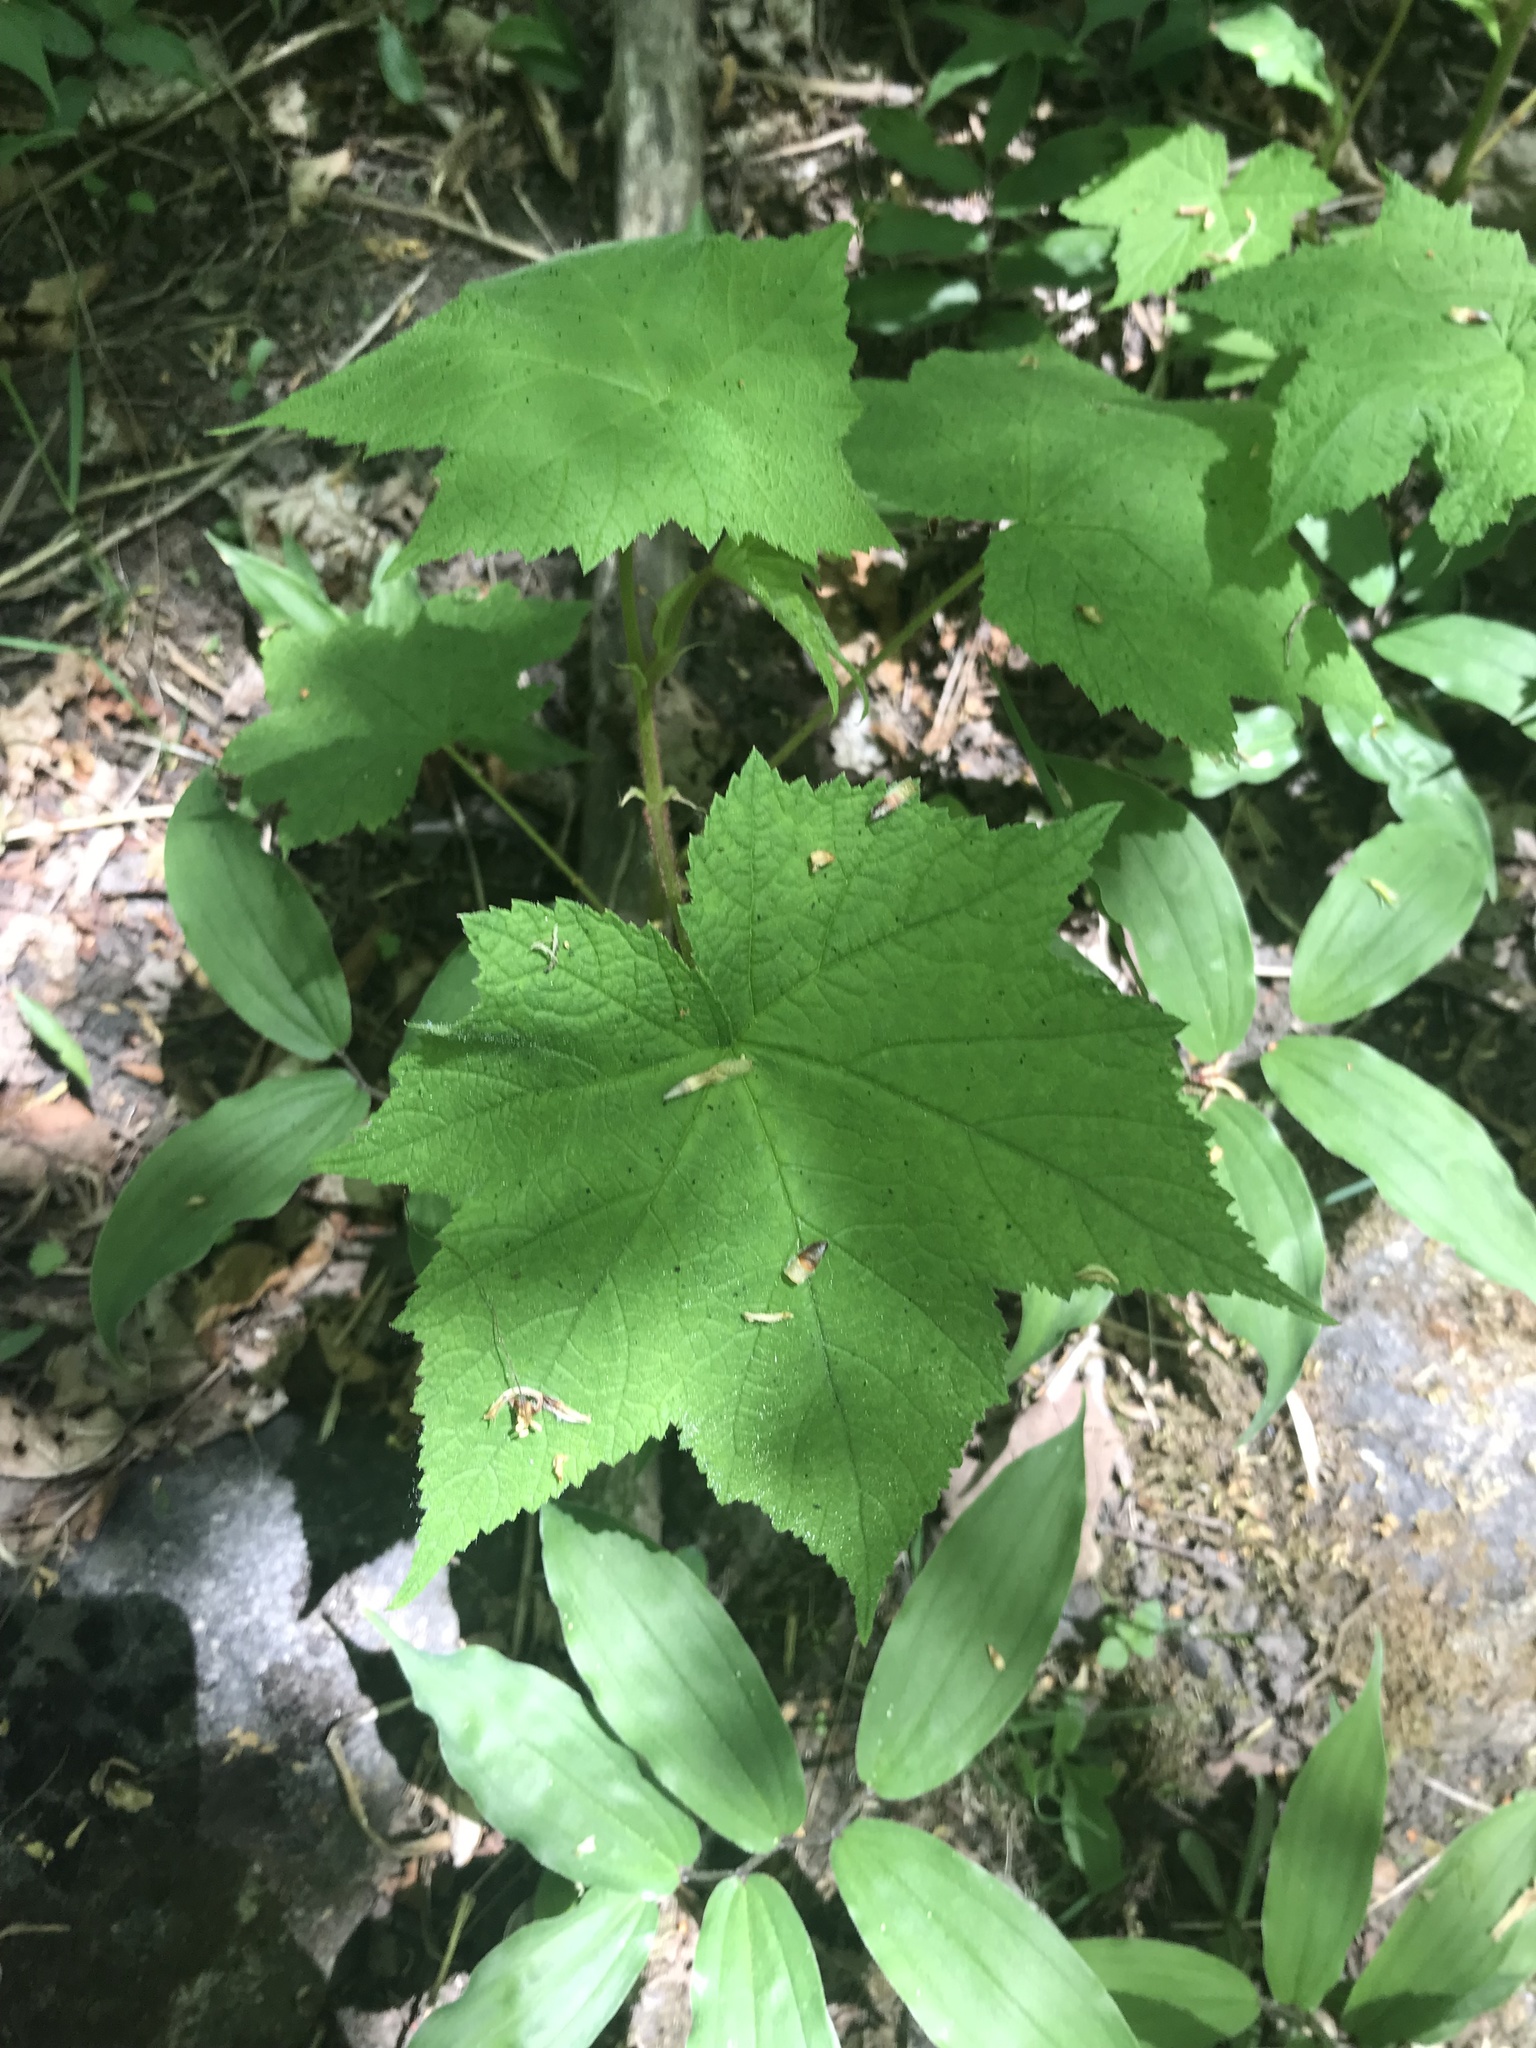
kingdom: Plantae
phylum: Tracheophyta
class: Magnoliopsida
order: Rosales
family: Rosaceae
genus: Rubus
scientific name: Rubus odoratus
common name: Purple-flowered raspberry
